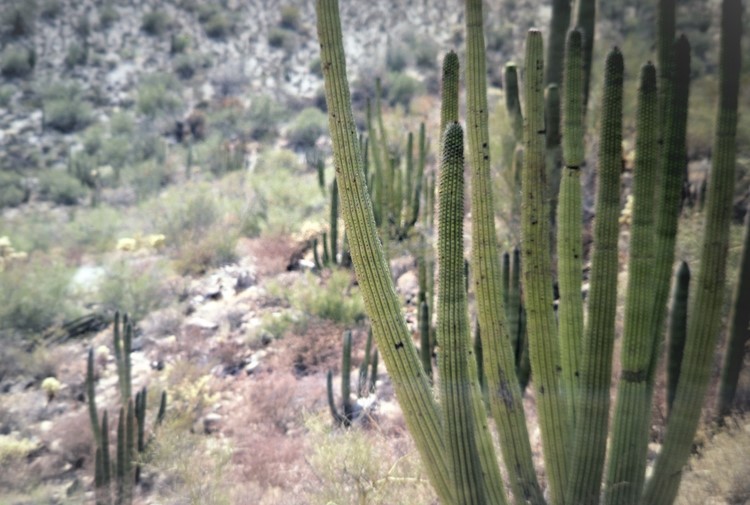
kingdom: Plantae
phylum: Tracheophyta
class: Magnoliopsida
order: Caryophyllales
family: Cactaceae
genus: Stenocereus
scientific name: Stenocereus thurberi
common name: Organ pipe cactus
